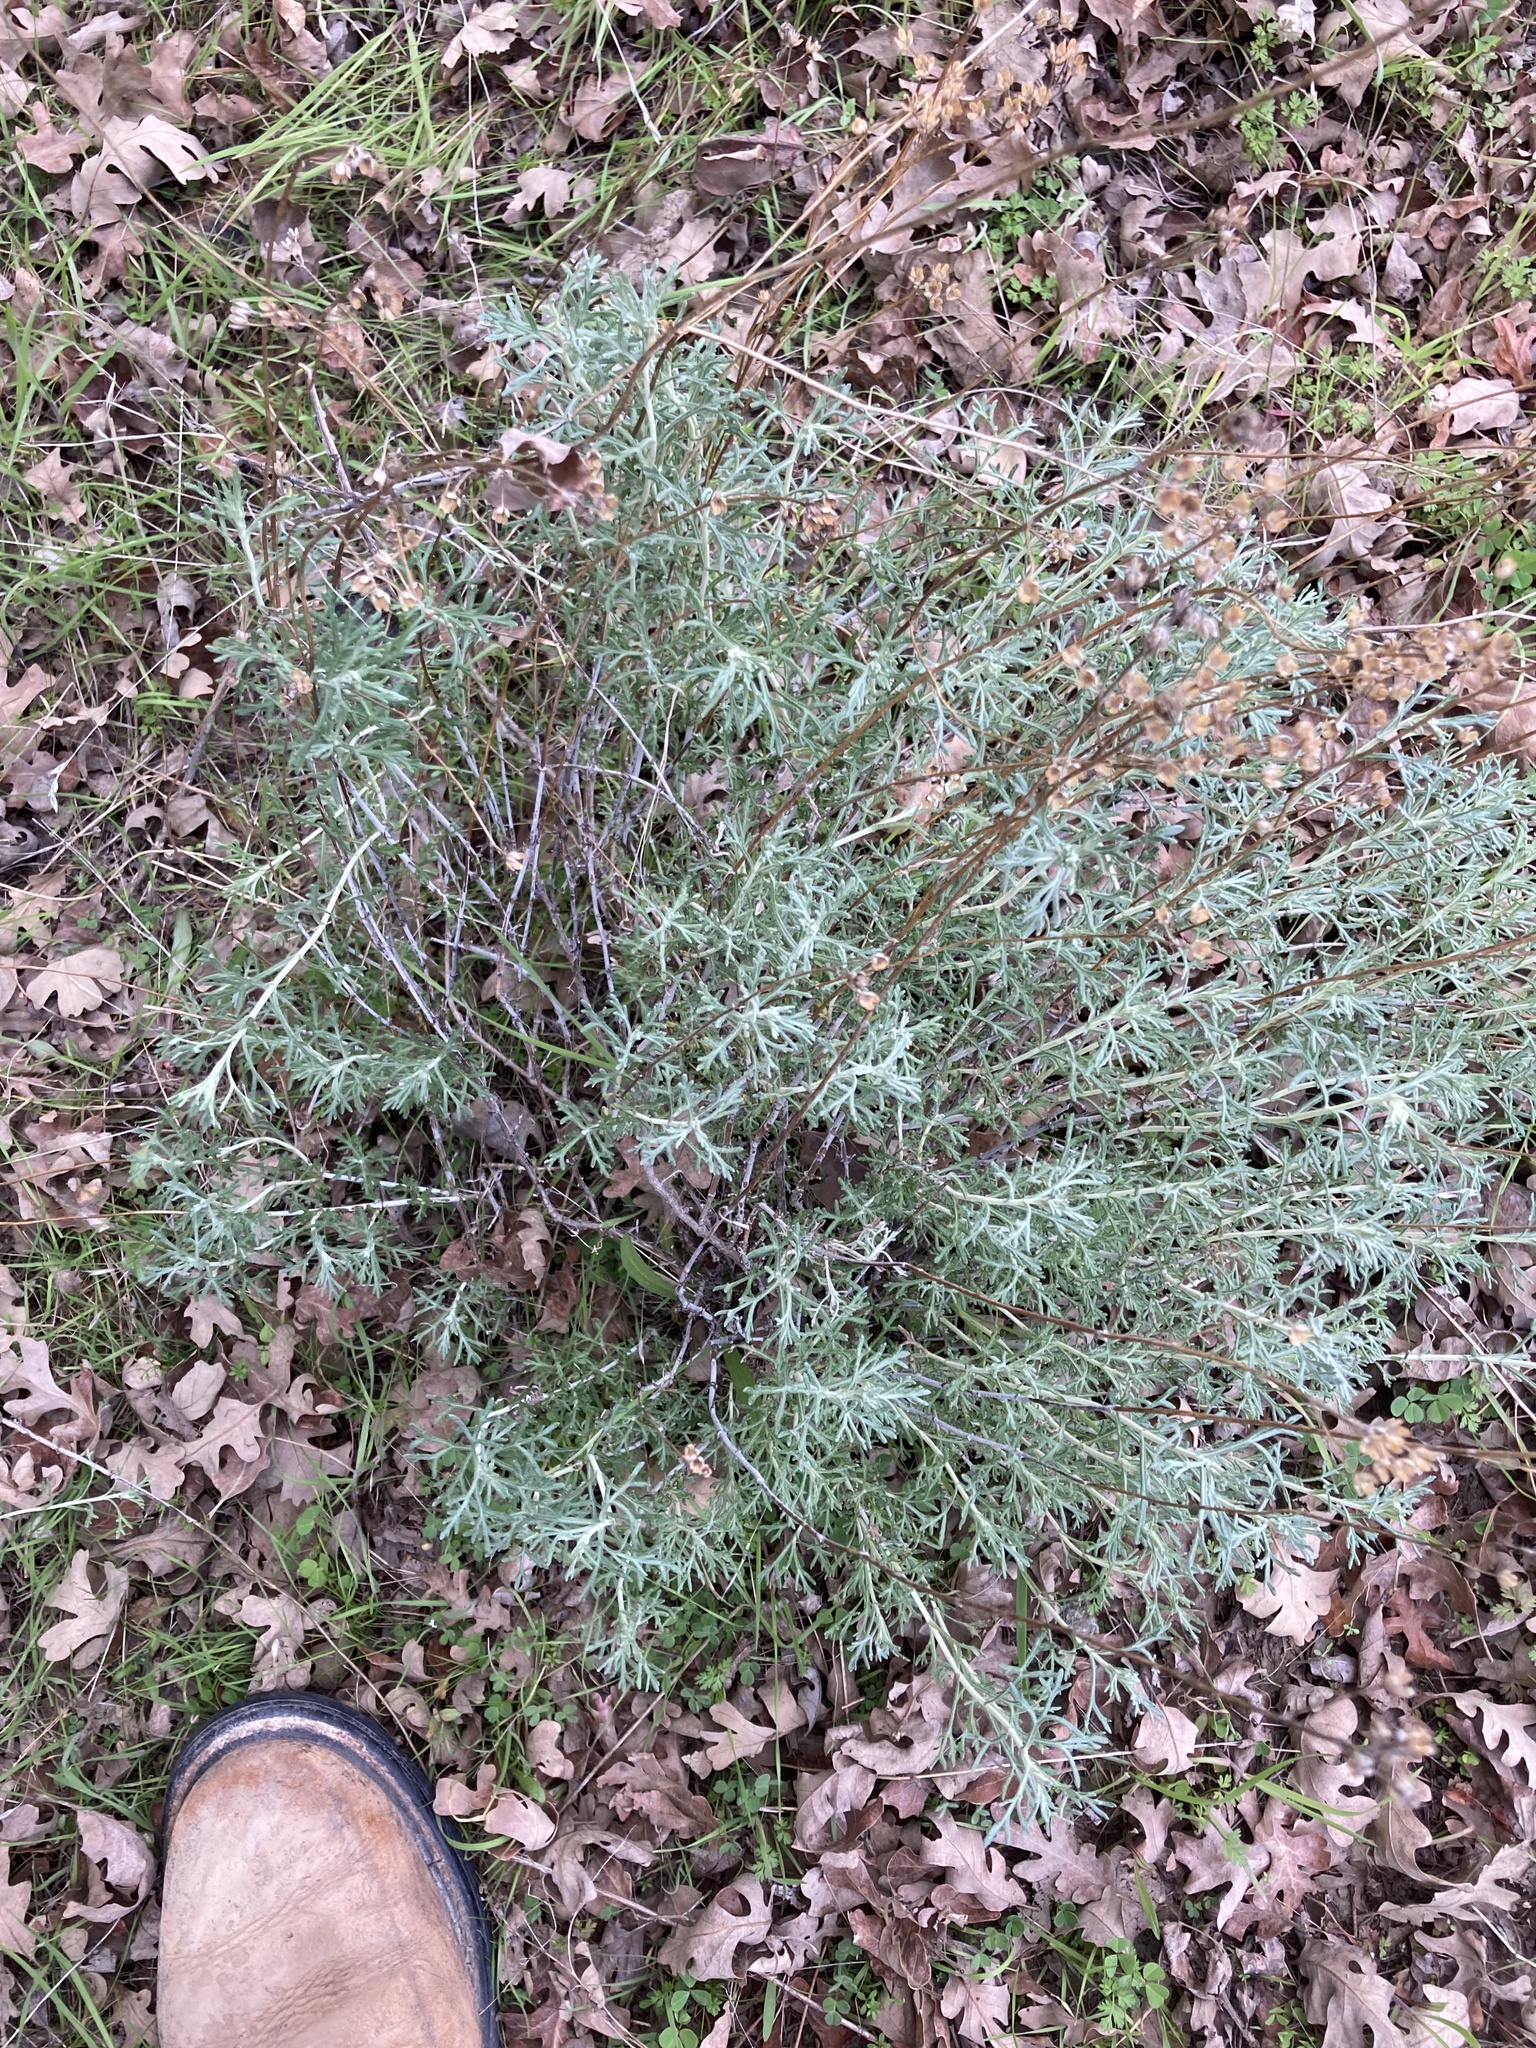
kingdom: Plantae
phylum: Tracheophyta
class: Magnoliopsida
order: Asterales
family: Asteraceae
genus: Eriophyllum
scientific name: Eriophyllum confertiflorum
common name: Golden-yarrow
